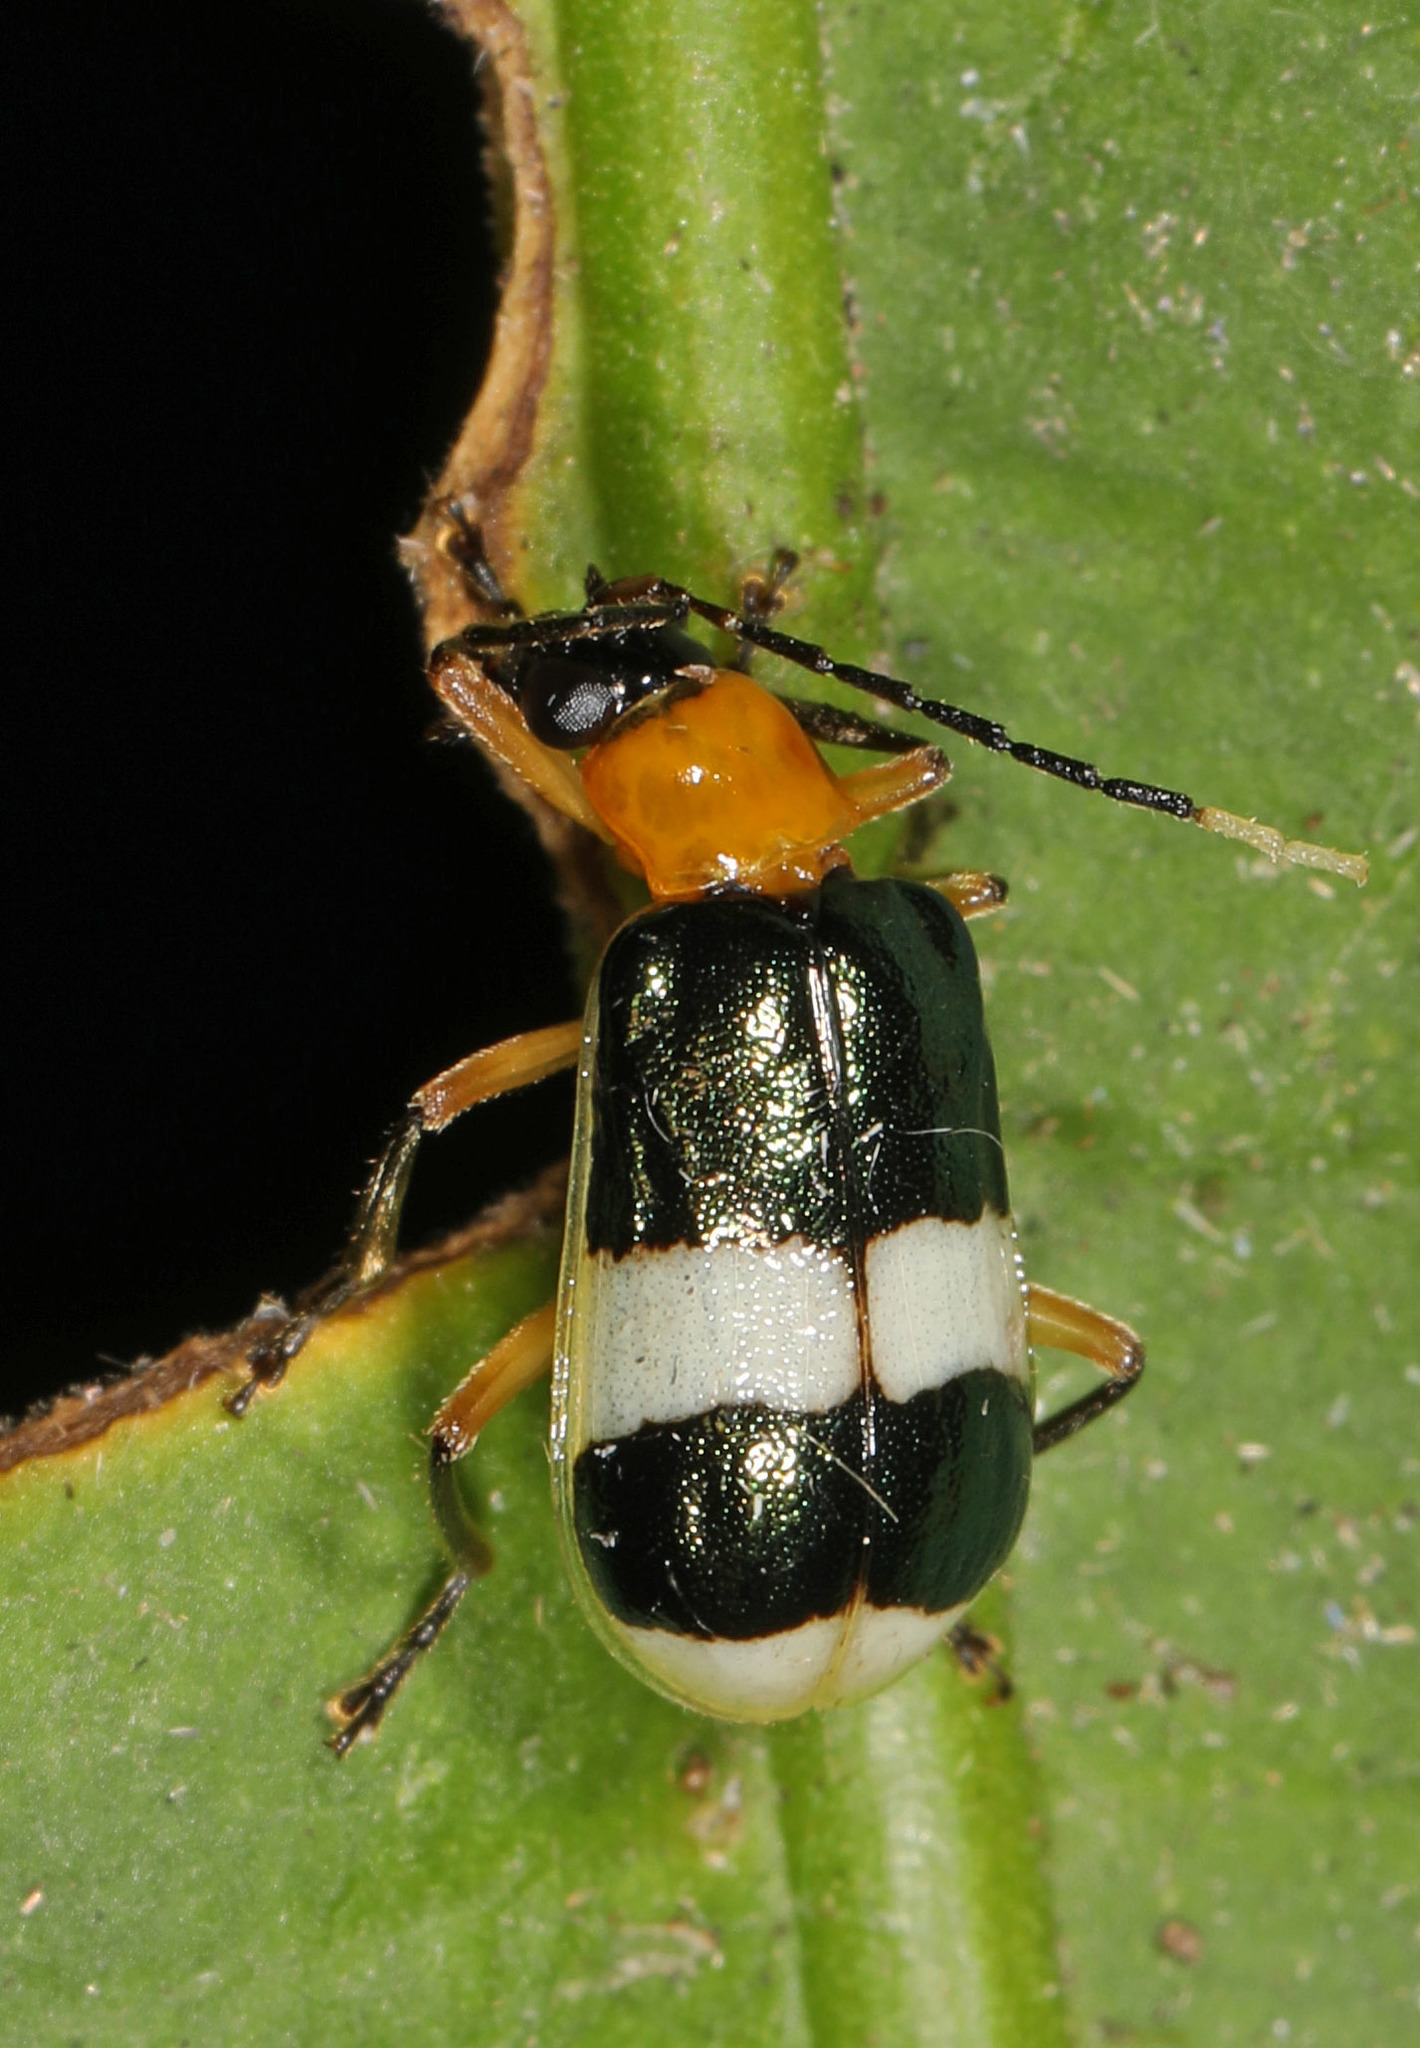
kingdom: Animalia
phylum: Arthropoda
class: Insecta
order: Coleoptera
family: Chrysomelidae
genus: Diabrotica
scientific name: Diabrotica
